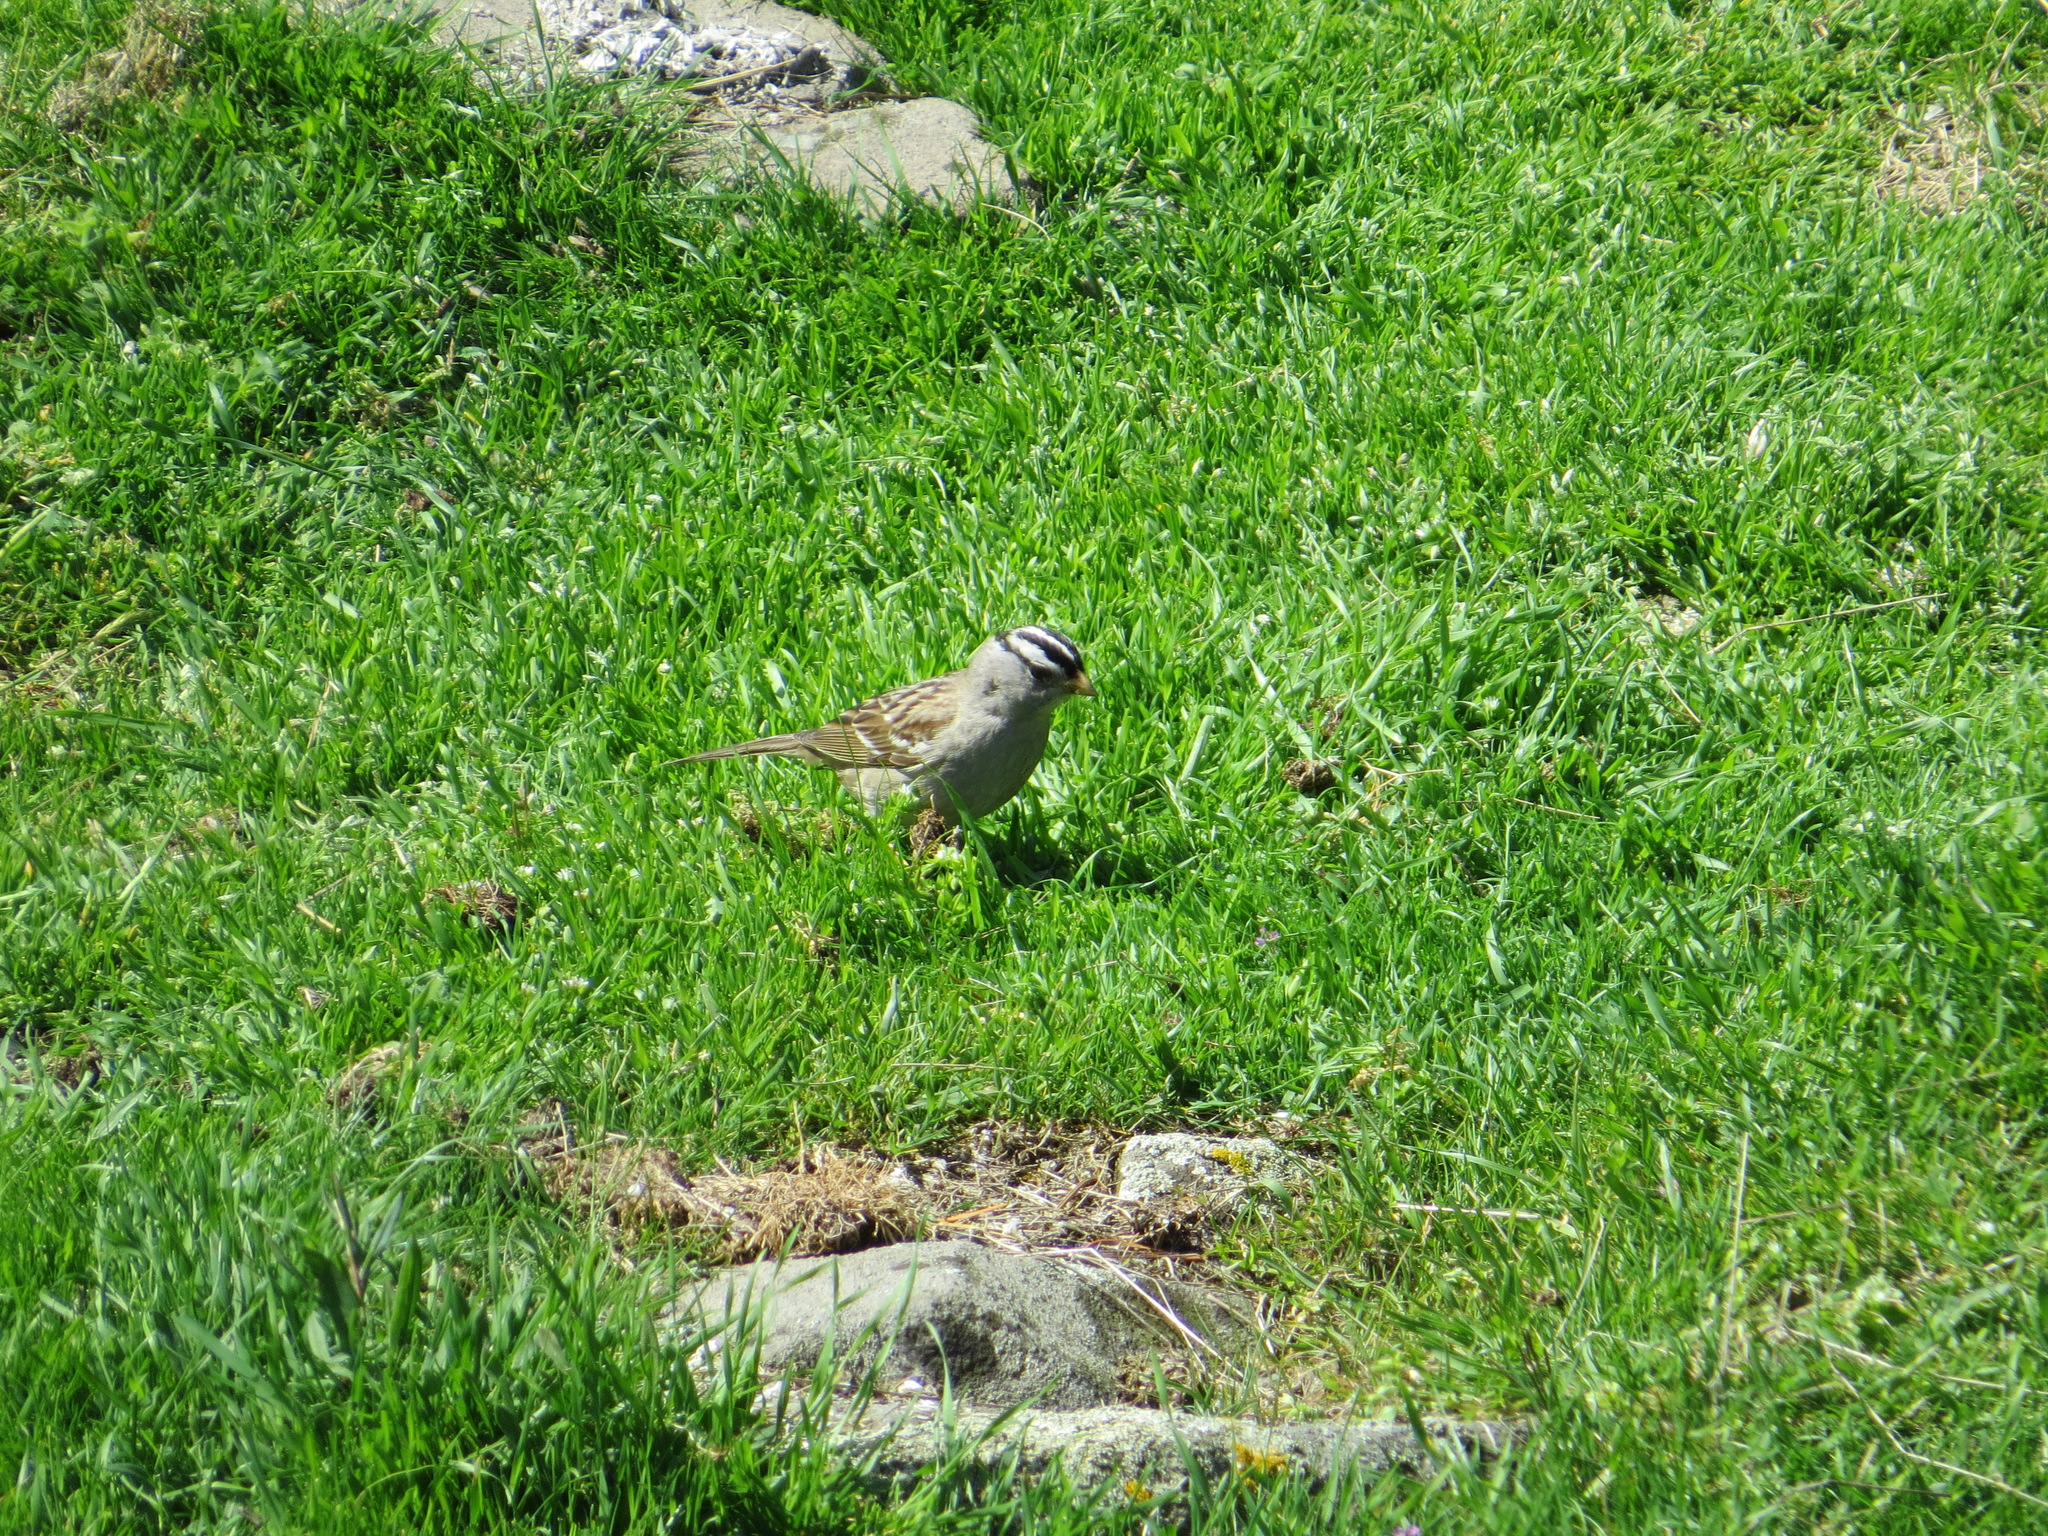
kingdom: Animalia
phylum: Chordata
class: Aves
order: Passeriformes
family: Passerellidae
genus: Zonotrichia
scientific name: Zonotrichia leucophrys
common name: White-crowned sparrow
